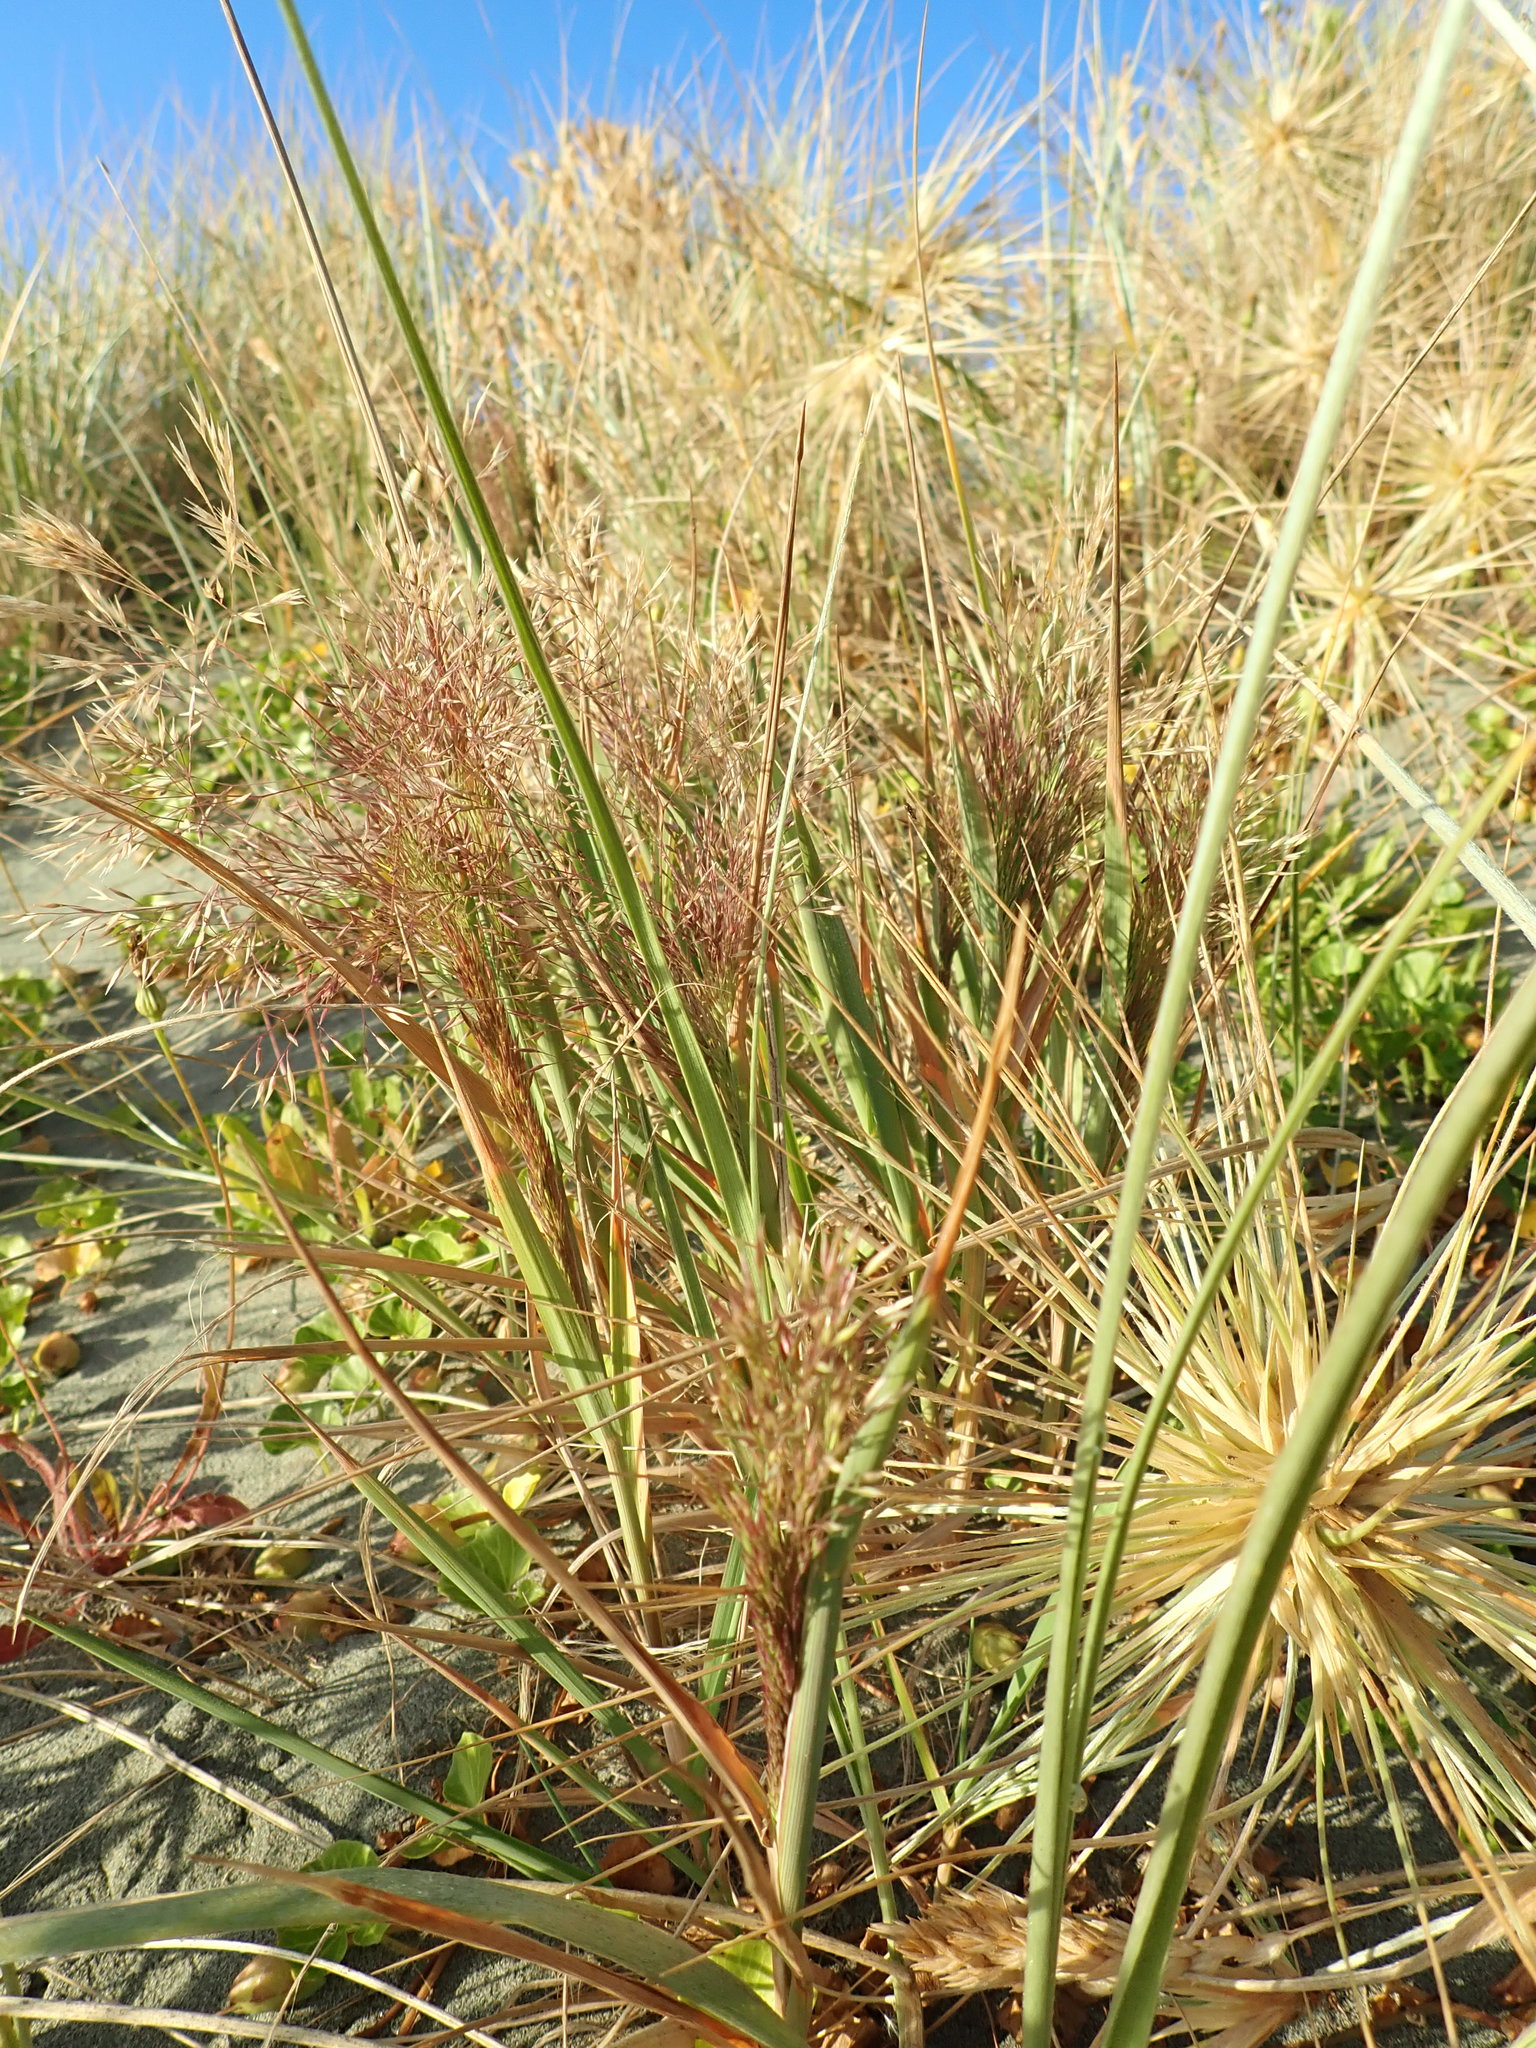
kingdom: Plantae
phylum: Tracheophyta
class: Liliopsida
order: Poales
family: Poaceae
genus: Lachnagrostis
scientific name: Lachnagrostis billardierei
